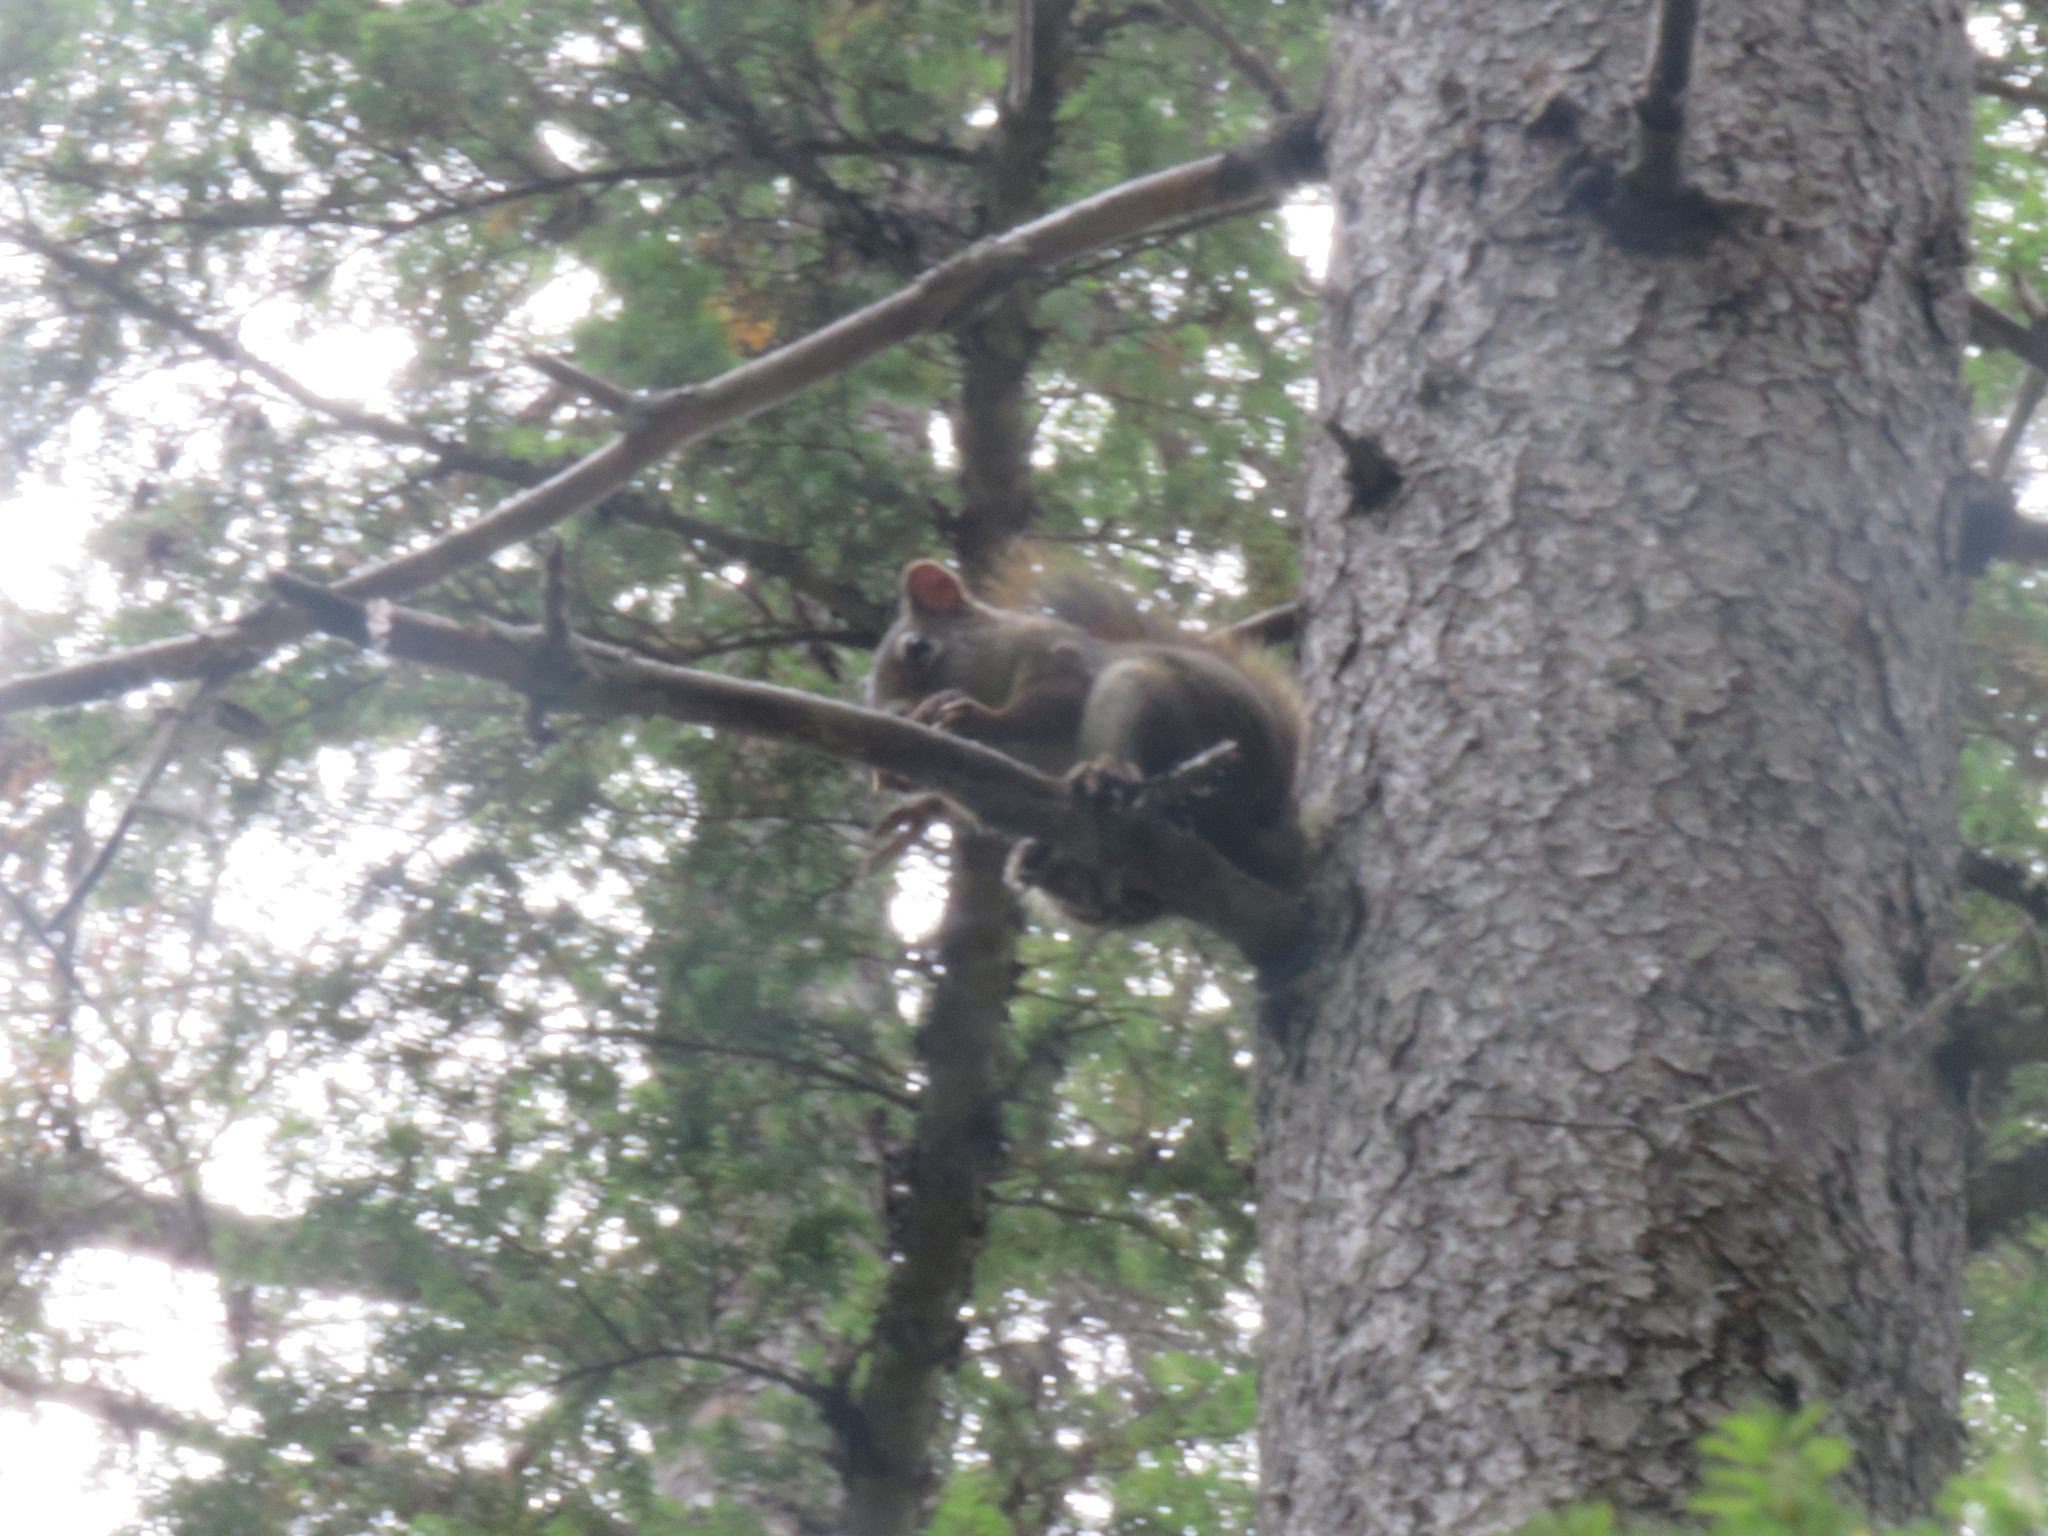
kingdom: Animalia
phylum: Chordata
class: Mammalia
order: Rodentia
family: Sciuridae
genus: Tamiasciurus
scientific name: Tamiasciurus hudsonicus
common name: Red squirrel
